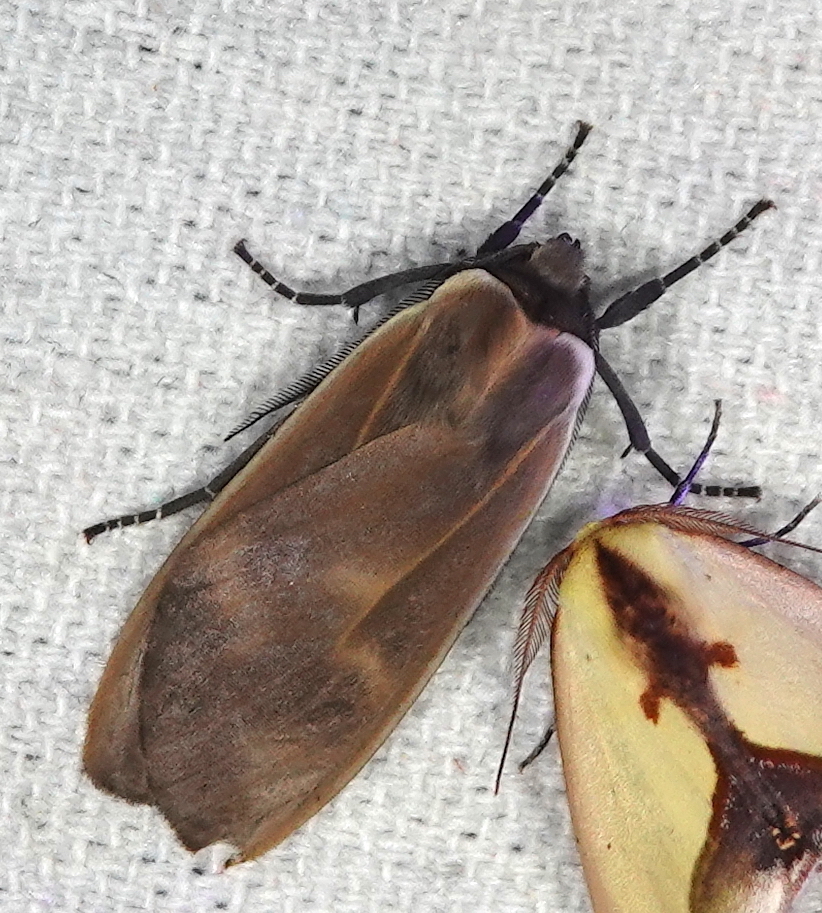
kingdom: Animalia
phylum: Arthropoda
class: Insecta
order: Lepidoptera
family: Erebidae
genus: Onythes
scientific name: Onythes pallidicosta
